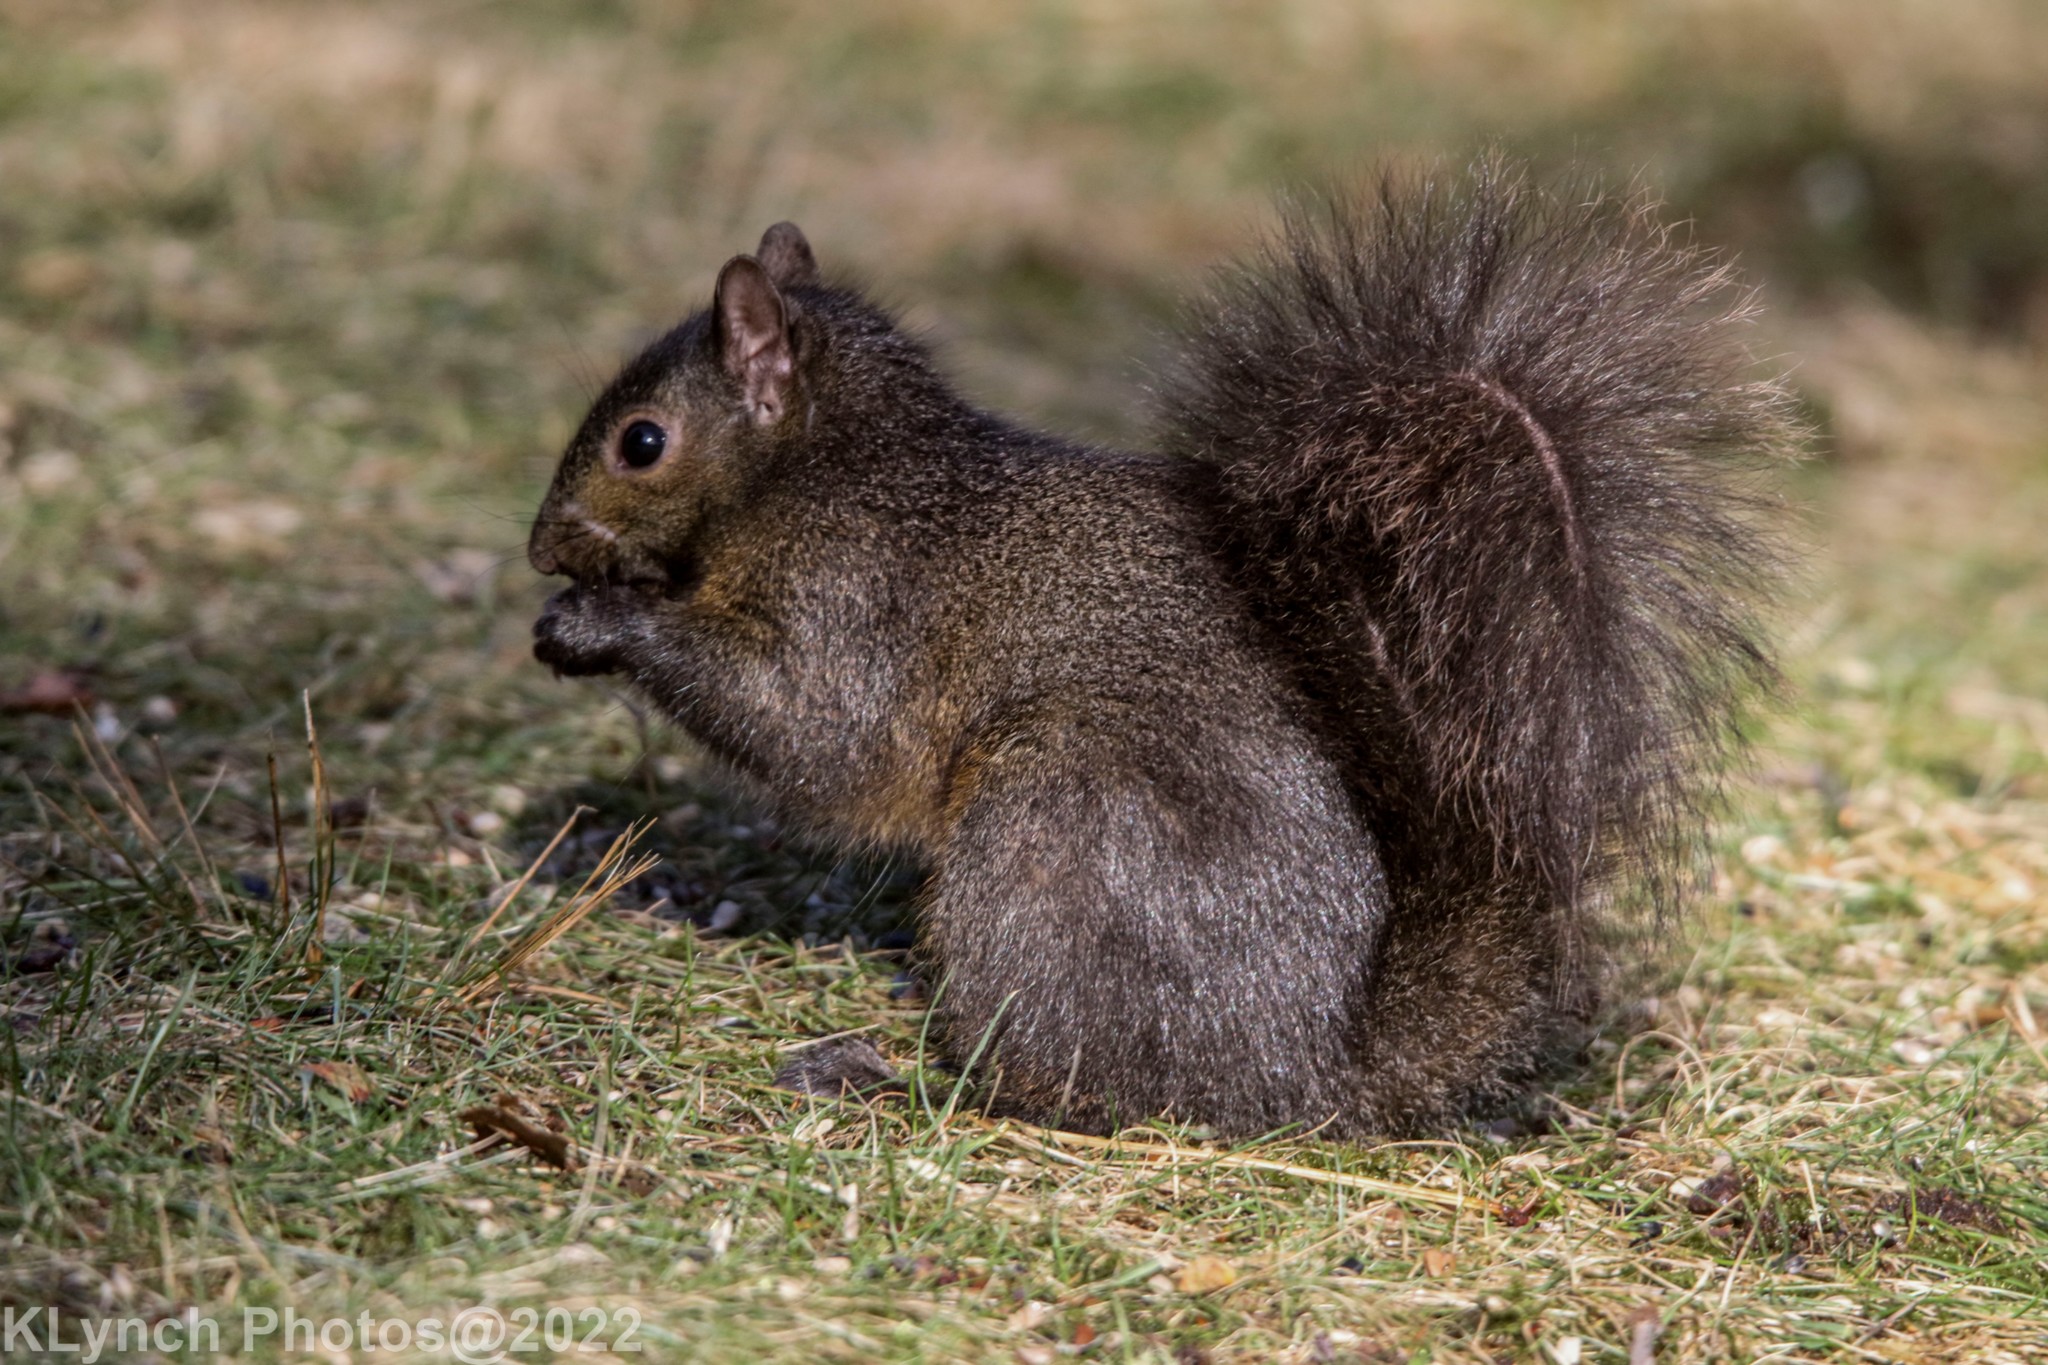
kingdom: Animalia
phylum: Chordata
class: Mammalia
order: Rodentia
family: Sciuridae
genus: Sciurus
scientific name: Sciurus carolinensis
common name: Eastern gray squirrel
